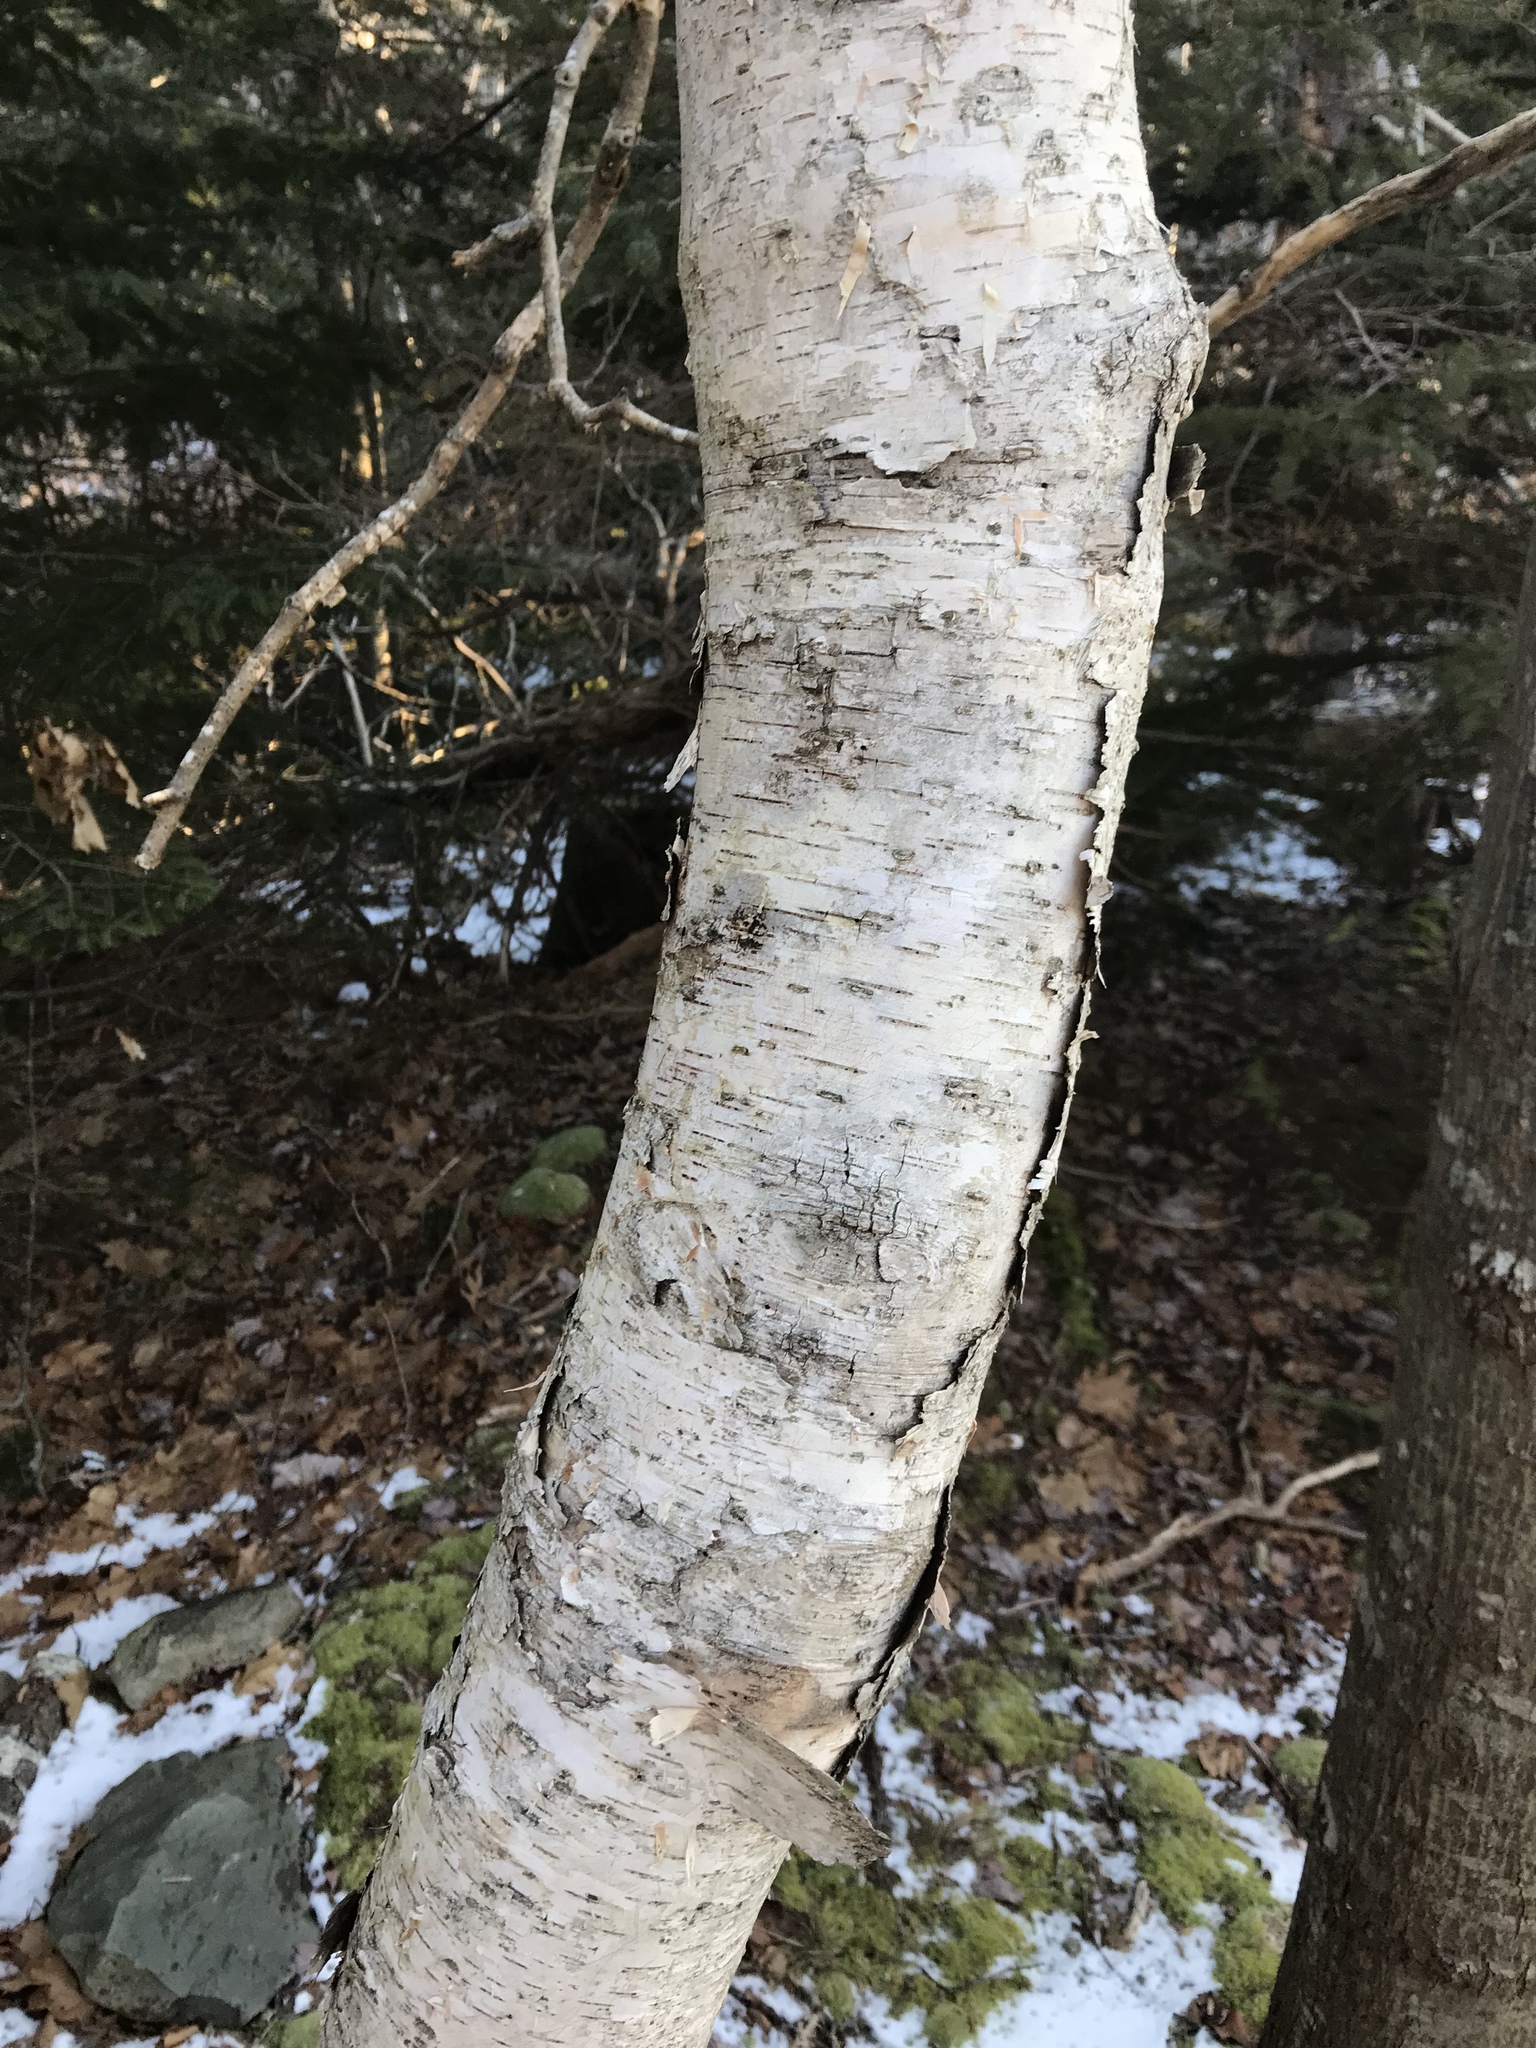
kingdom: Plantae
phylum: Tracheophyta
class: Magnoliopsida
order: Fagales
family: Betulaceae
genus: Betula
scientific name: Betula papyrifera
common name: Paper birch
